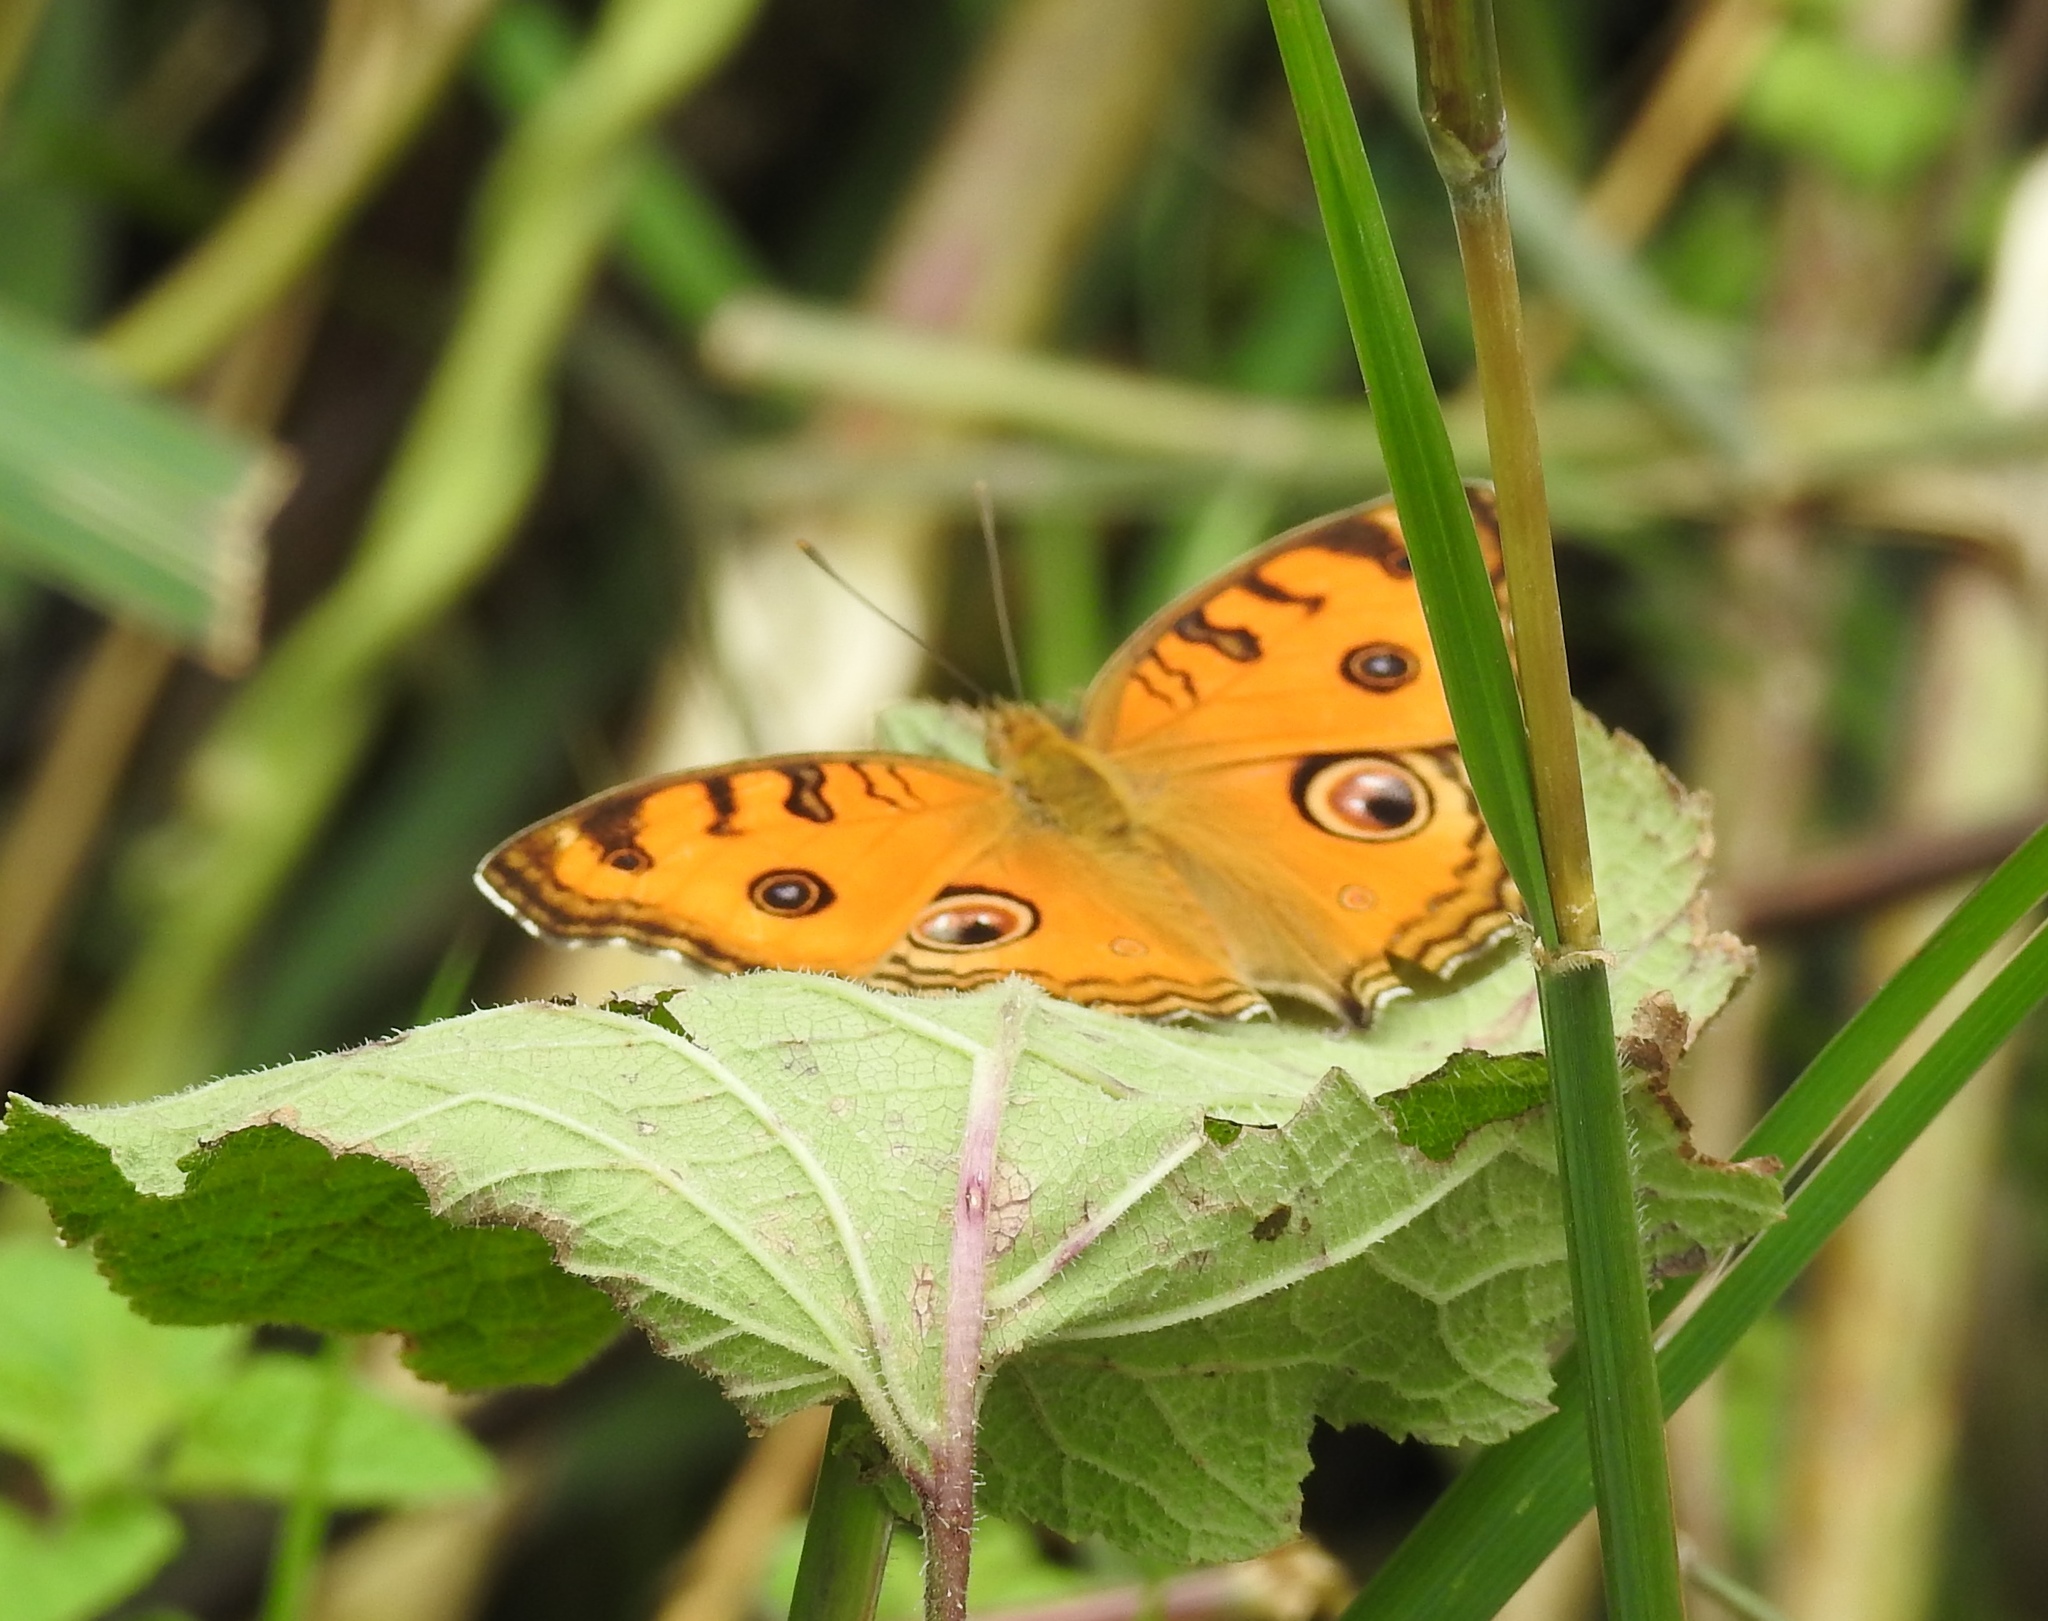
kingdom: Animalia
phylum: Arthropoda
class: Insecta
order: Lepidoptera
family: Nymphalidae
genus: Junonia
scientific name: Junonia almana
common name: Peacock pansy
